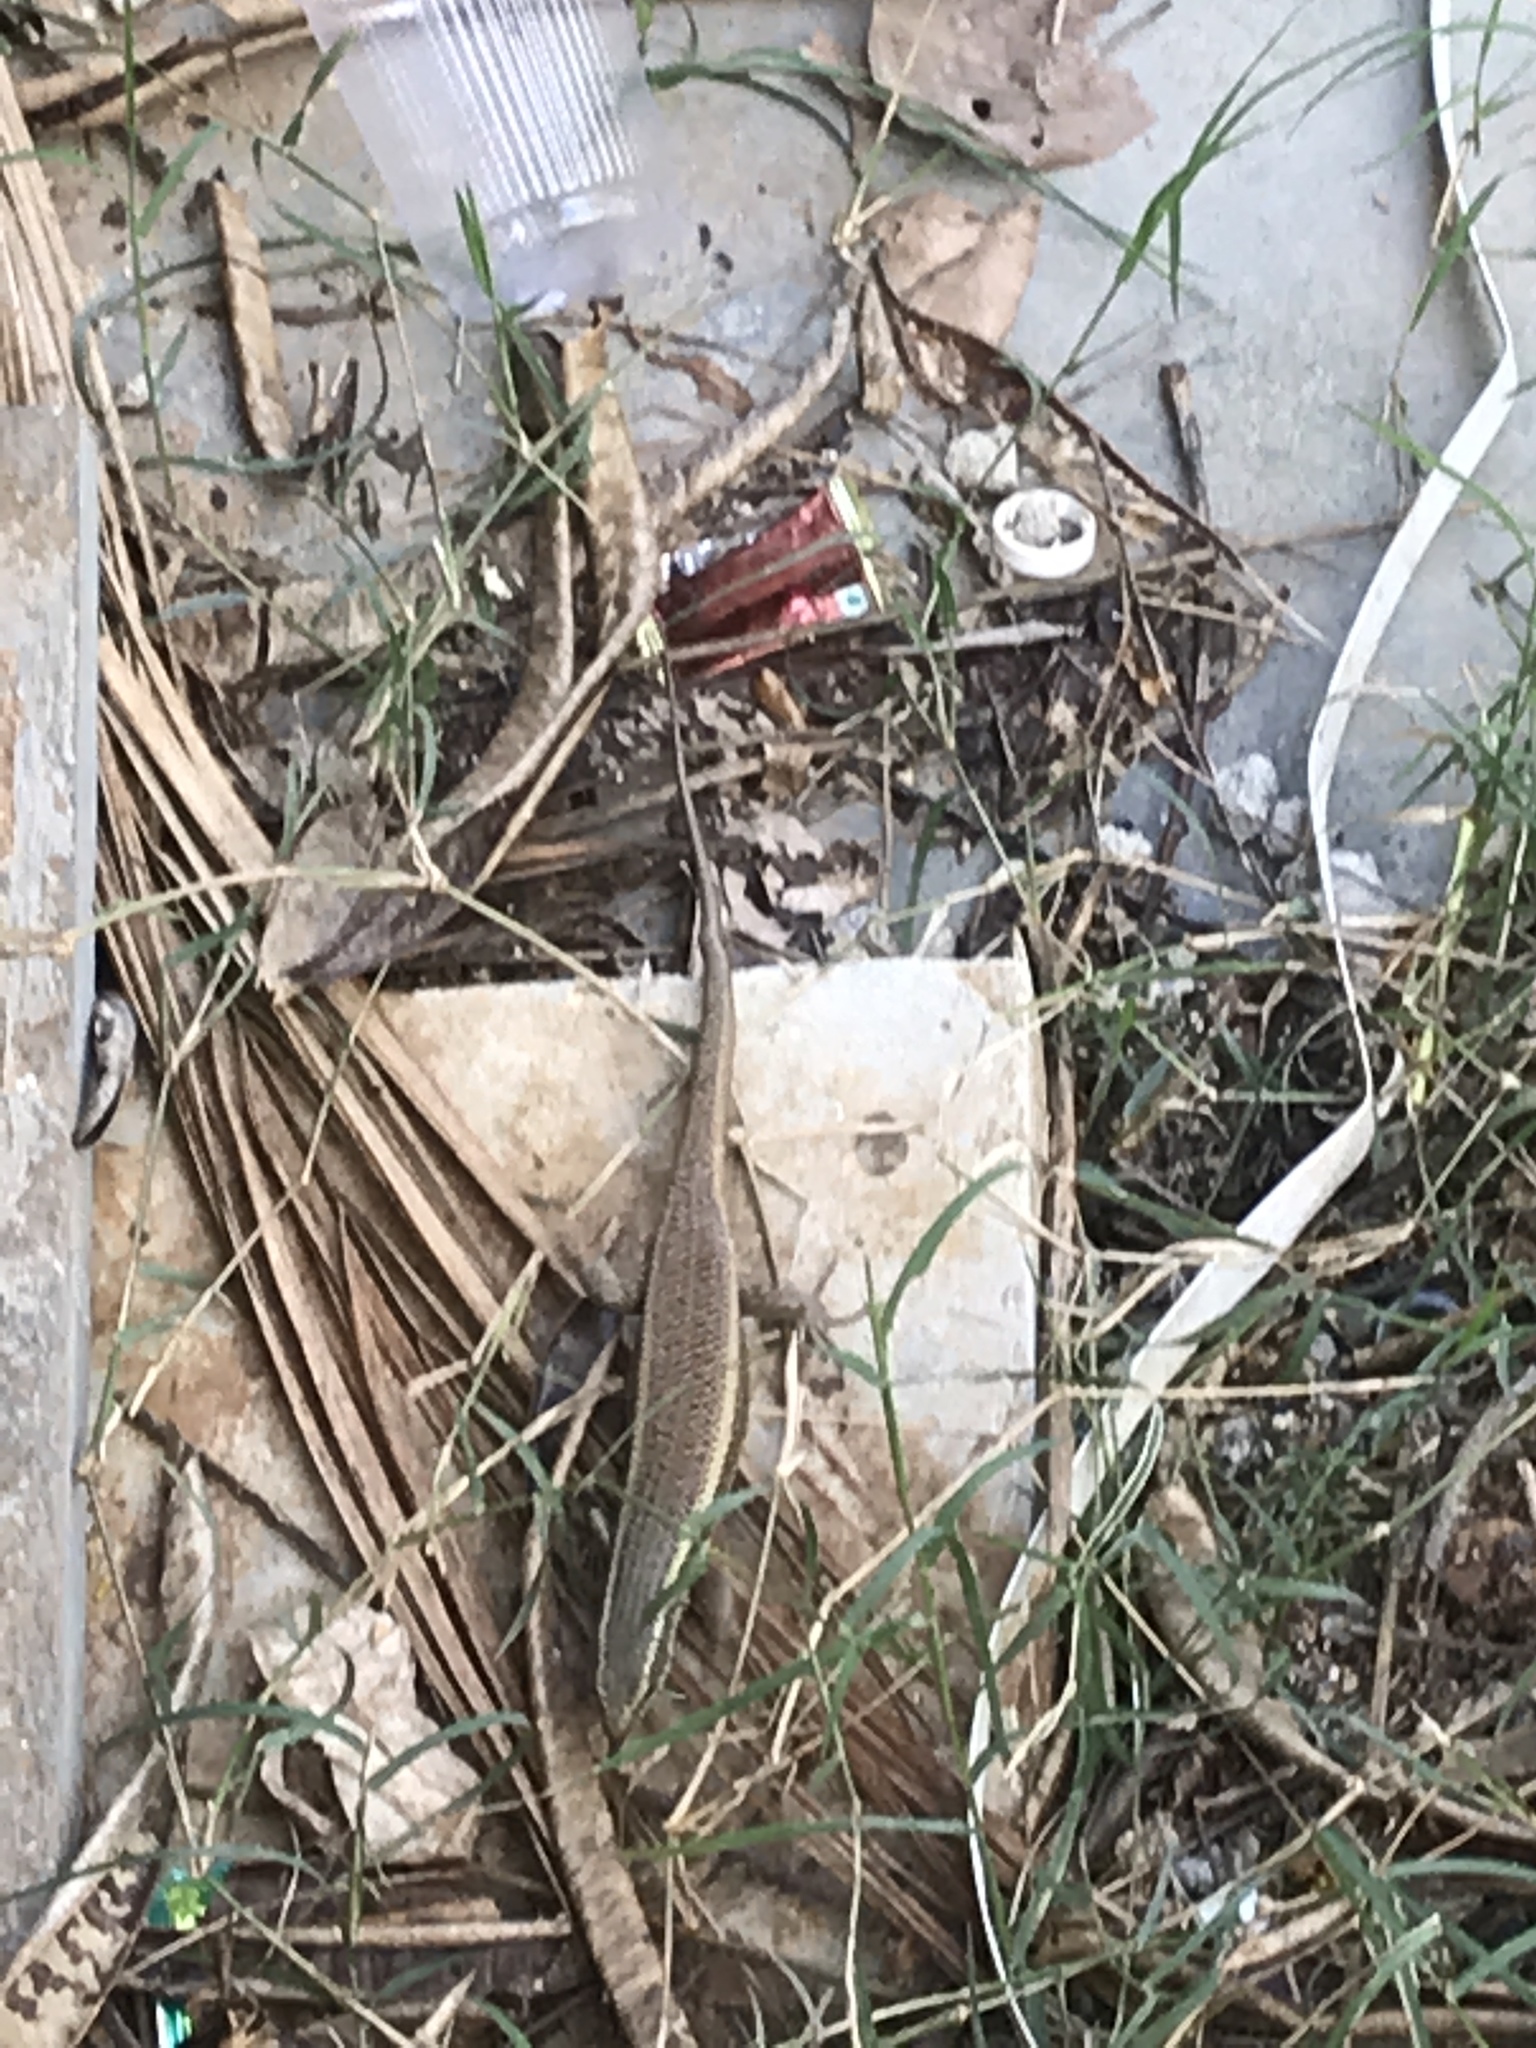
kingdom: Animalia
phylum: Chordata
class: Squamata
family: Scincidae
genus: Eutropis
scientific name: Eutropis carinata
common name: Keeled indian mabuya
